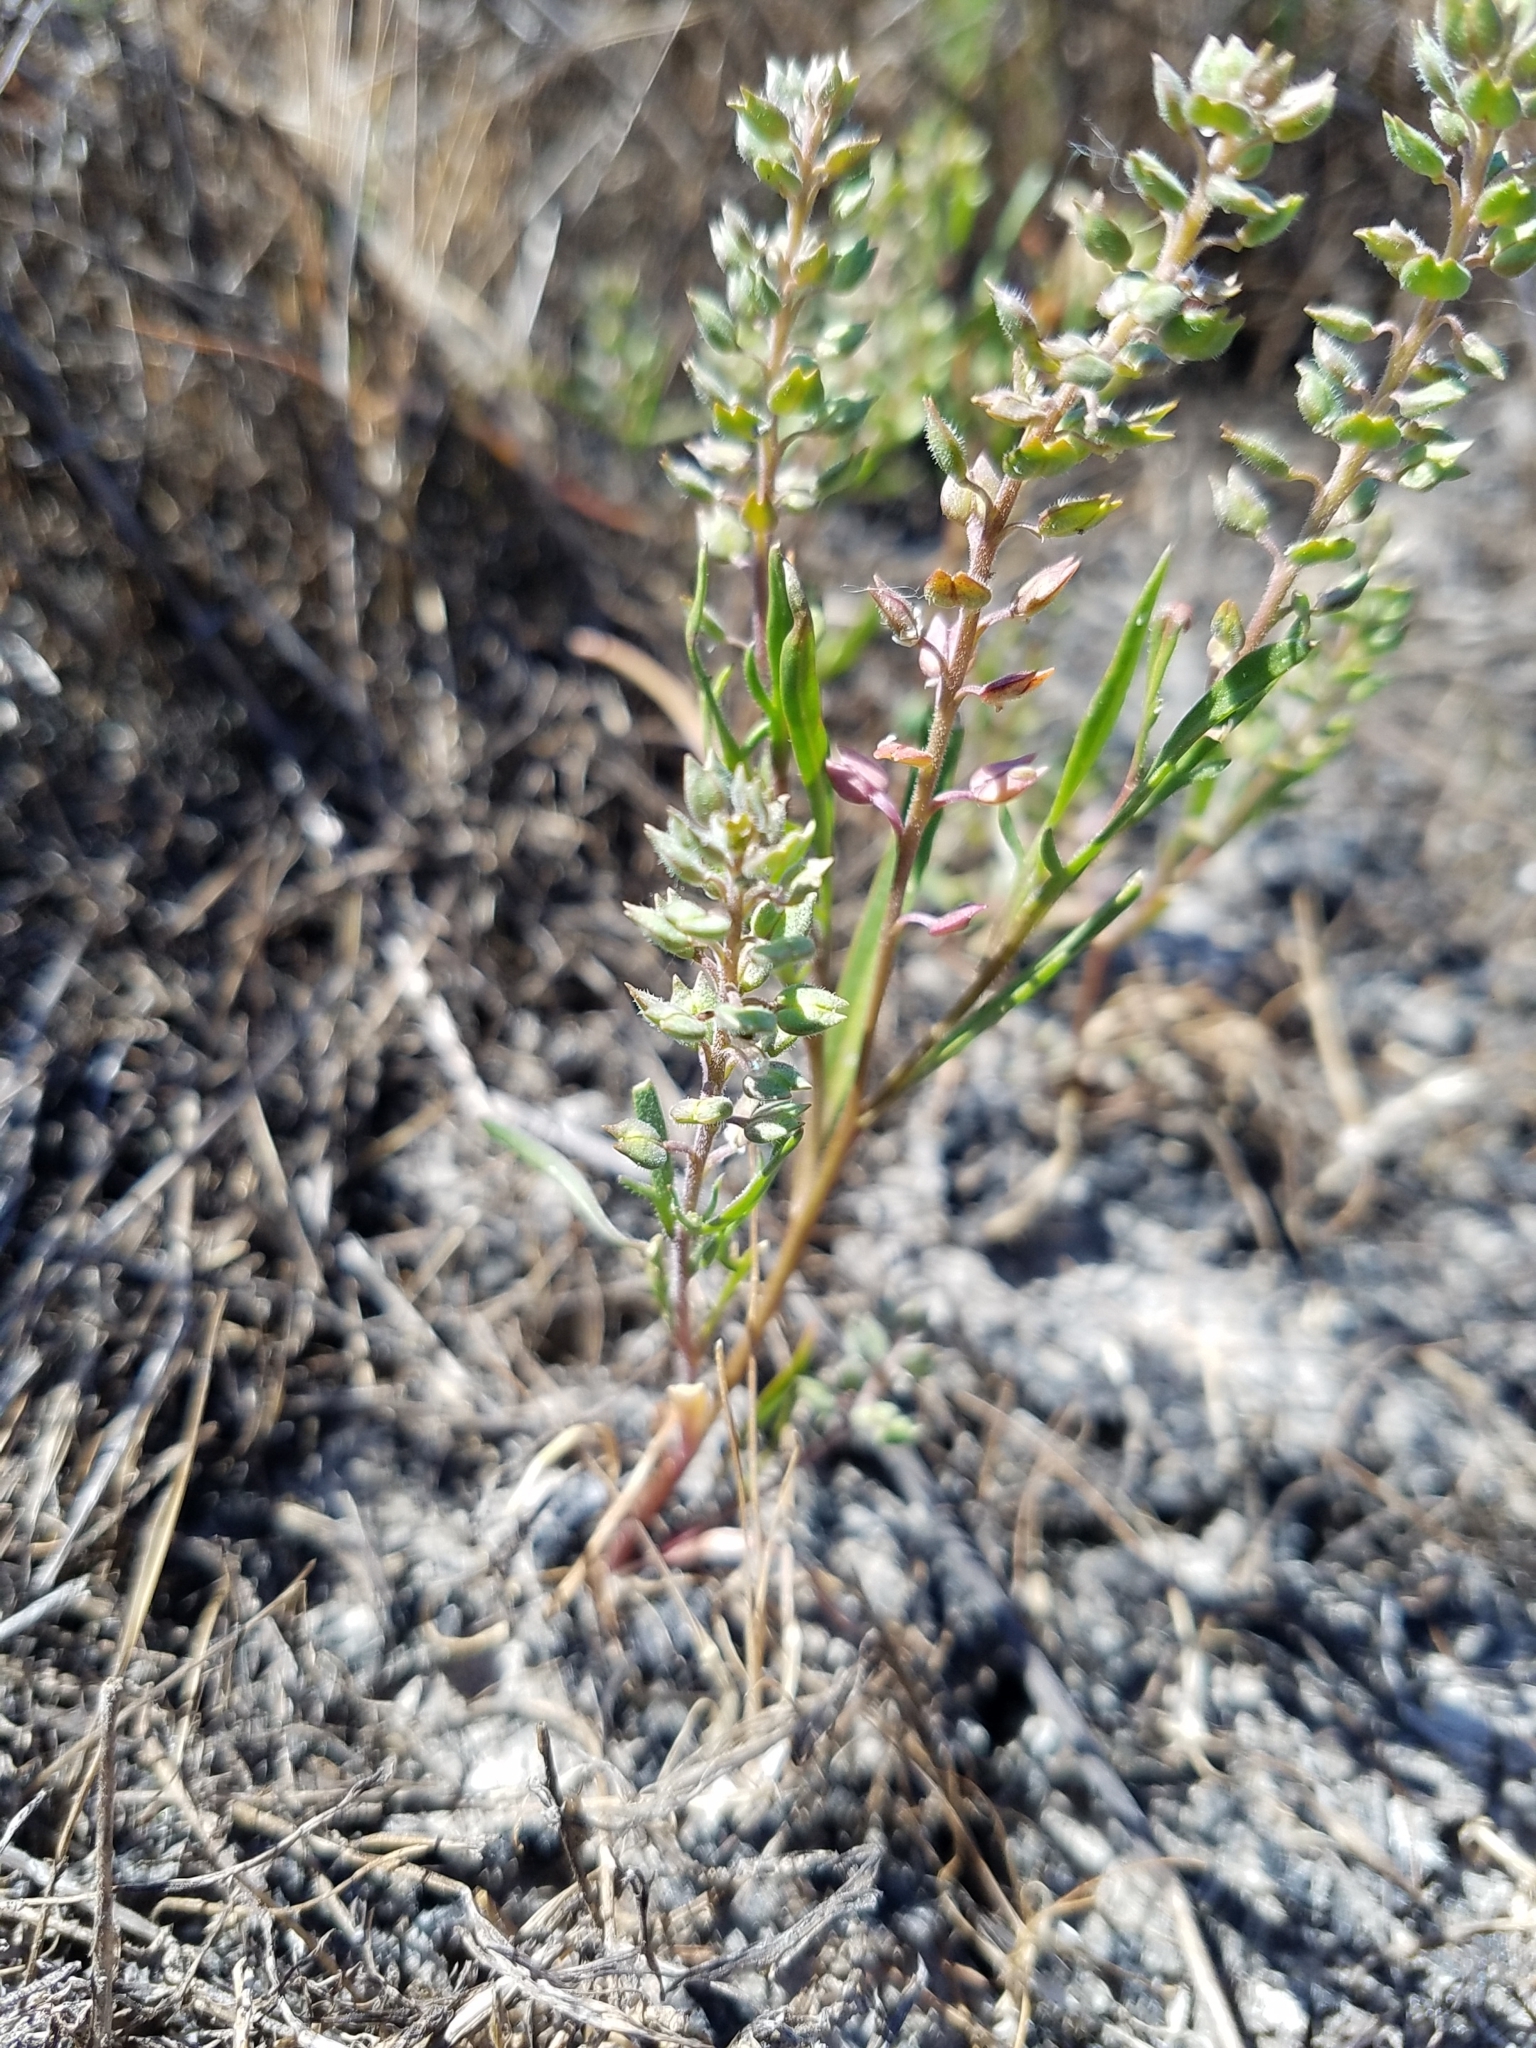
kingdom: Plantae
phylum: Tracheophyta
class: Magnoliopsida
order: Brassicales
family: Brassicaceae
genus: Lepidium
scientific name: Lepidium oxycarpum
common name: Forked peppergrass
